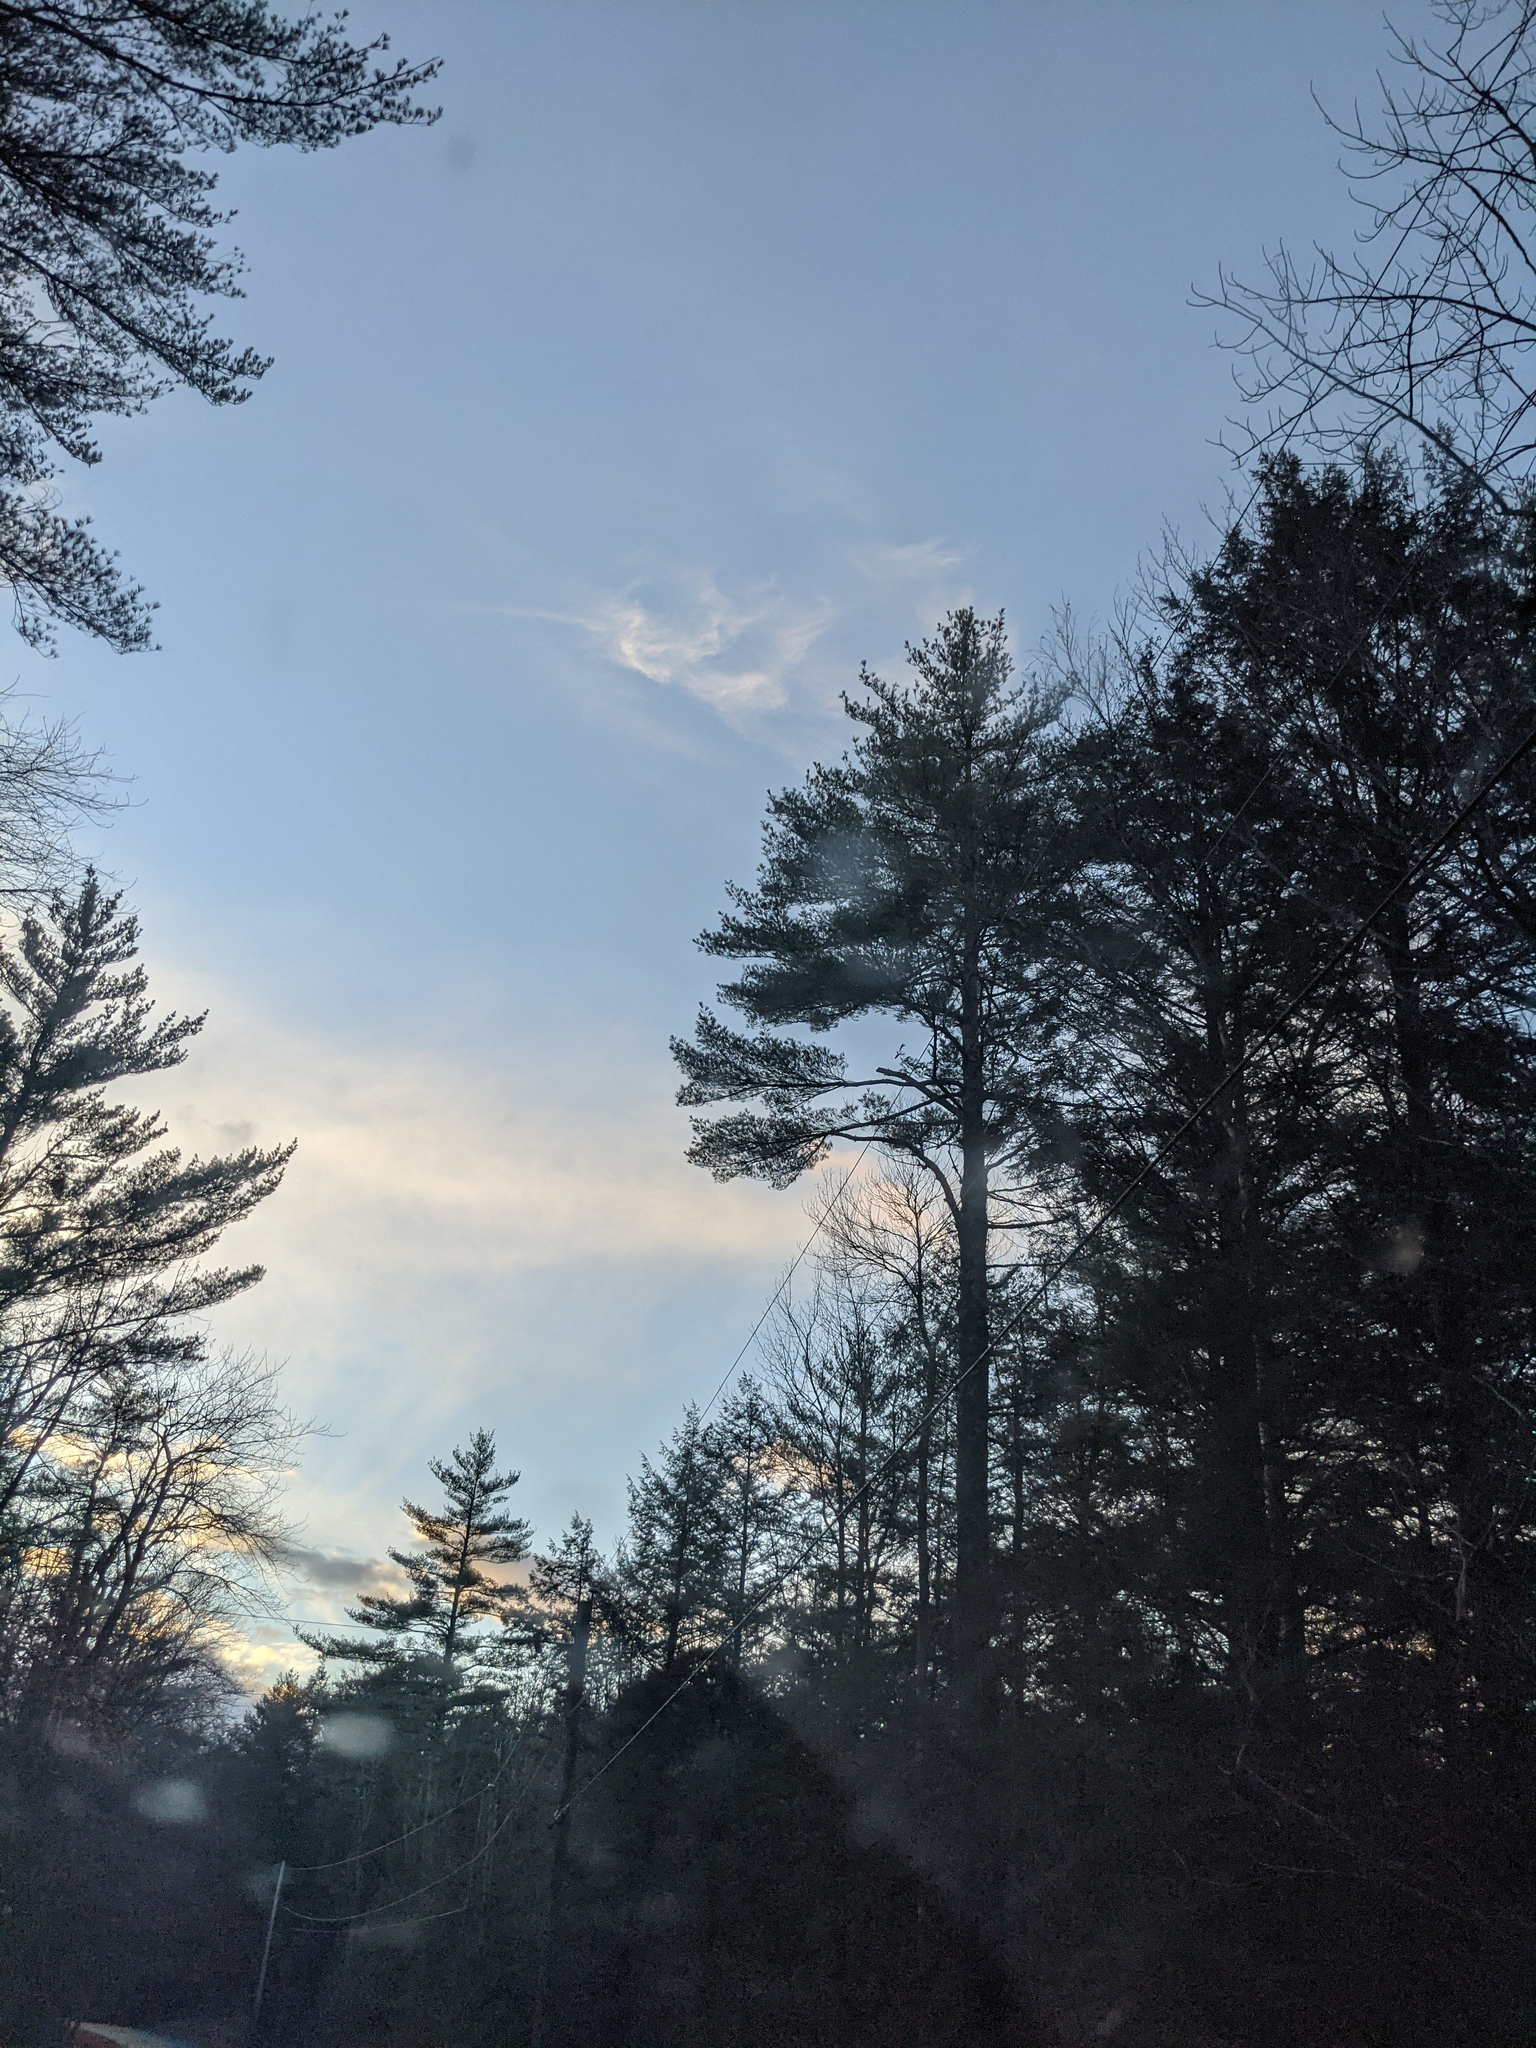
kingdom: Plantae
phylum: Tracheophyta
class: Pinopsida
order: Pinales
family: Pinaceae
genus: Pinus
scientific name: Pinus strobus
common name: Weymouth pine
